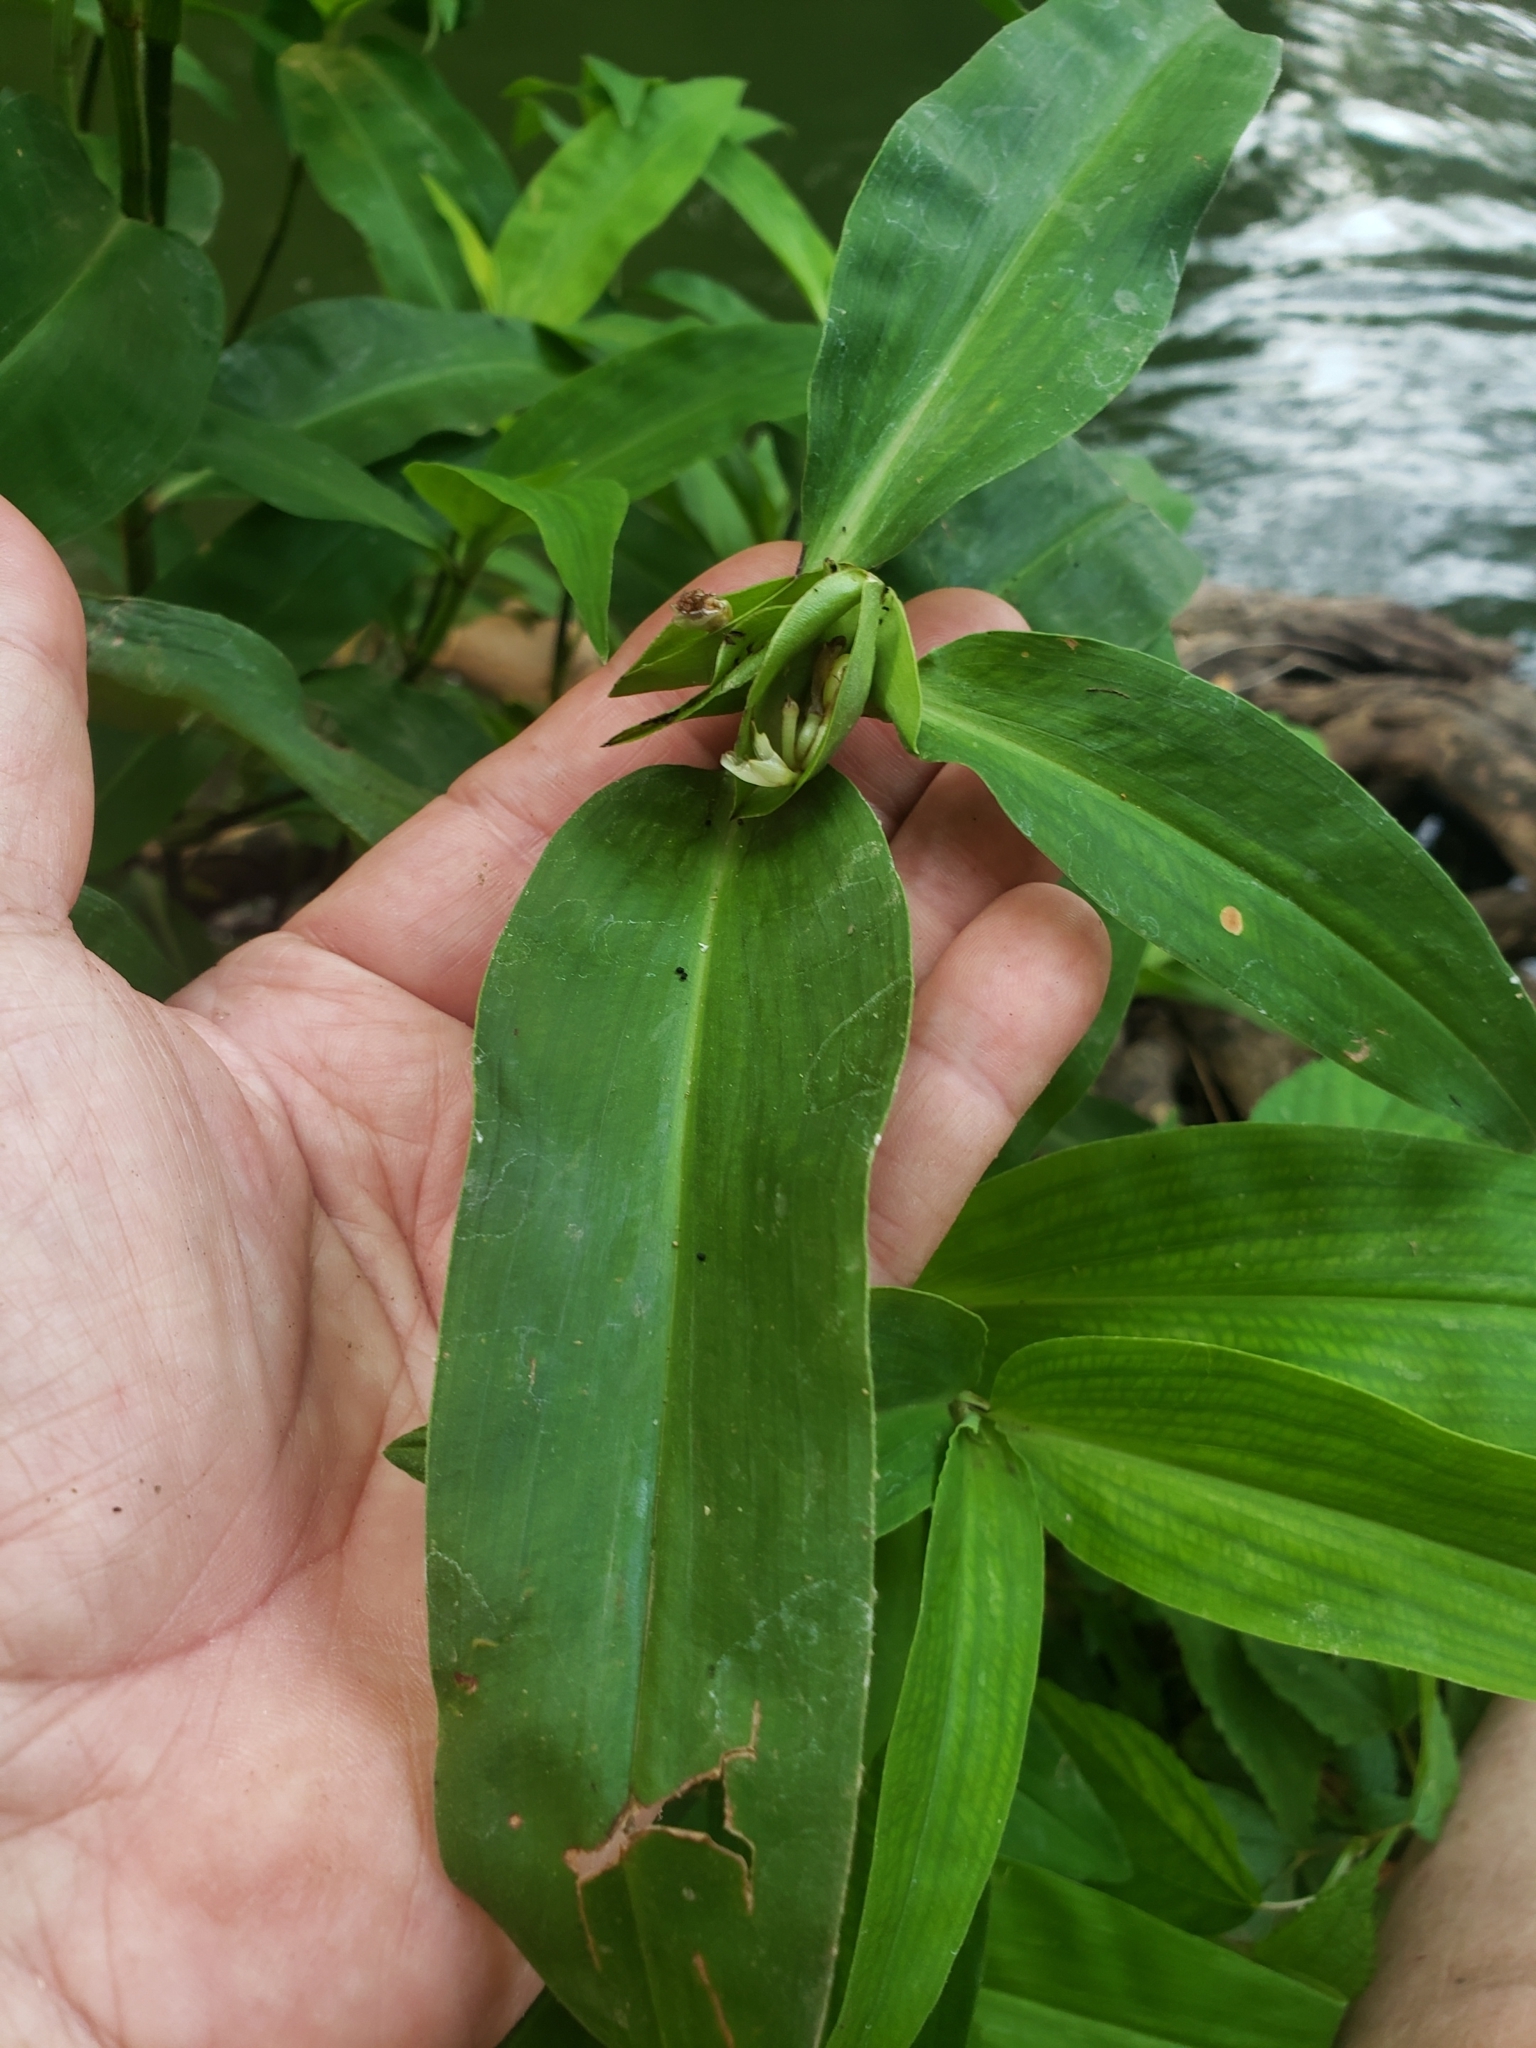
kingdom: Plantae
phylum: Tracheophyta
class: Liliopsida
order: Commelinales
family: Commelinaceae
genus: Commelina
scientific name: Commelina virginica
